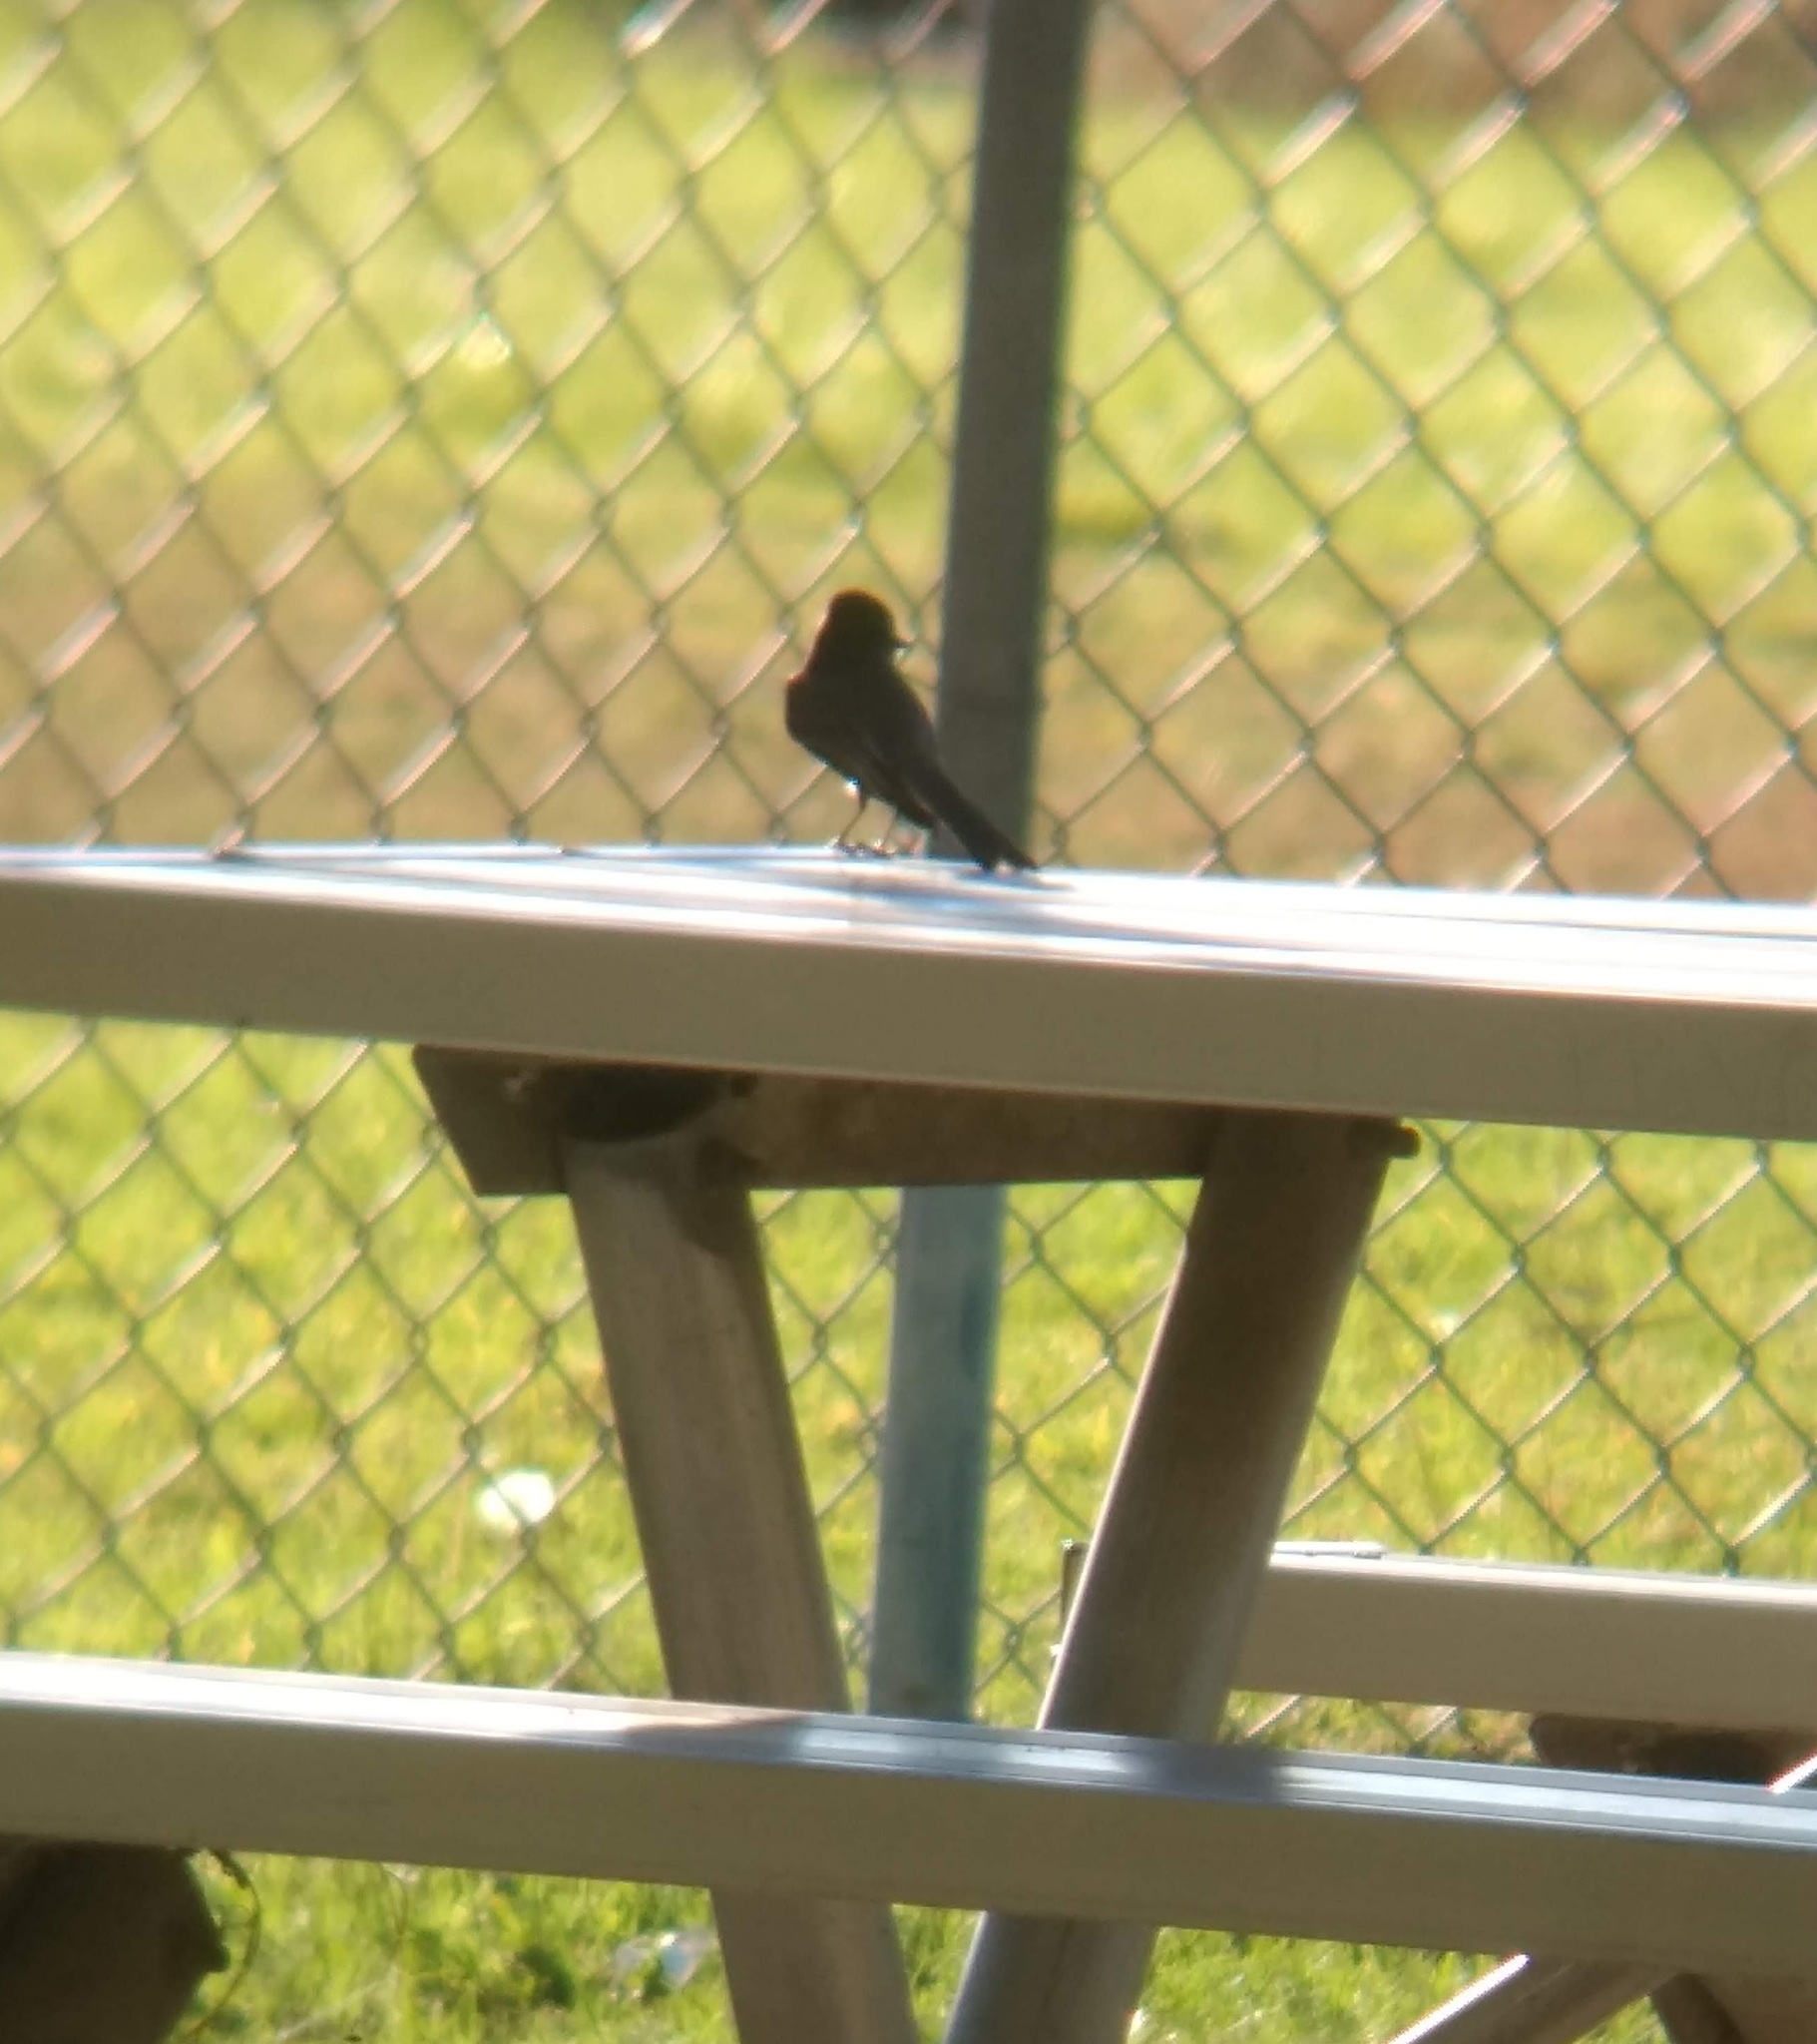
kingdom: Animalia
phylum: Chordata
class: Aves
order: Passeriformes
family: Tyrannidae
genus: Sayornis
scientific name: Sayornis nigricans
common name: Black phoebe
